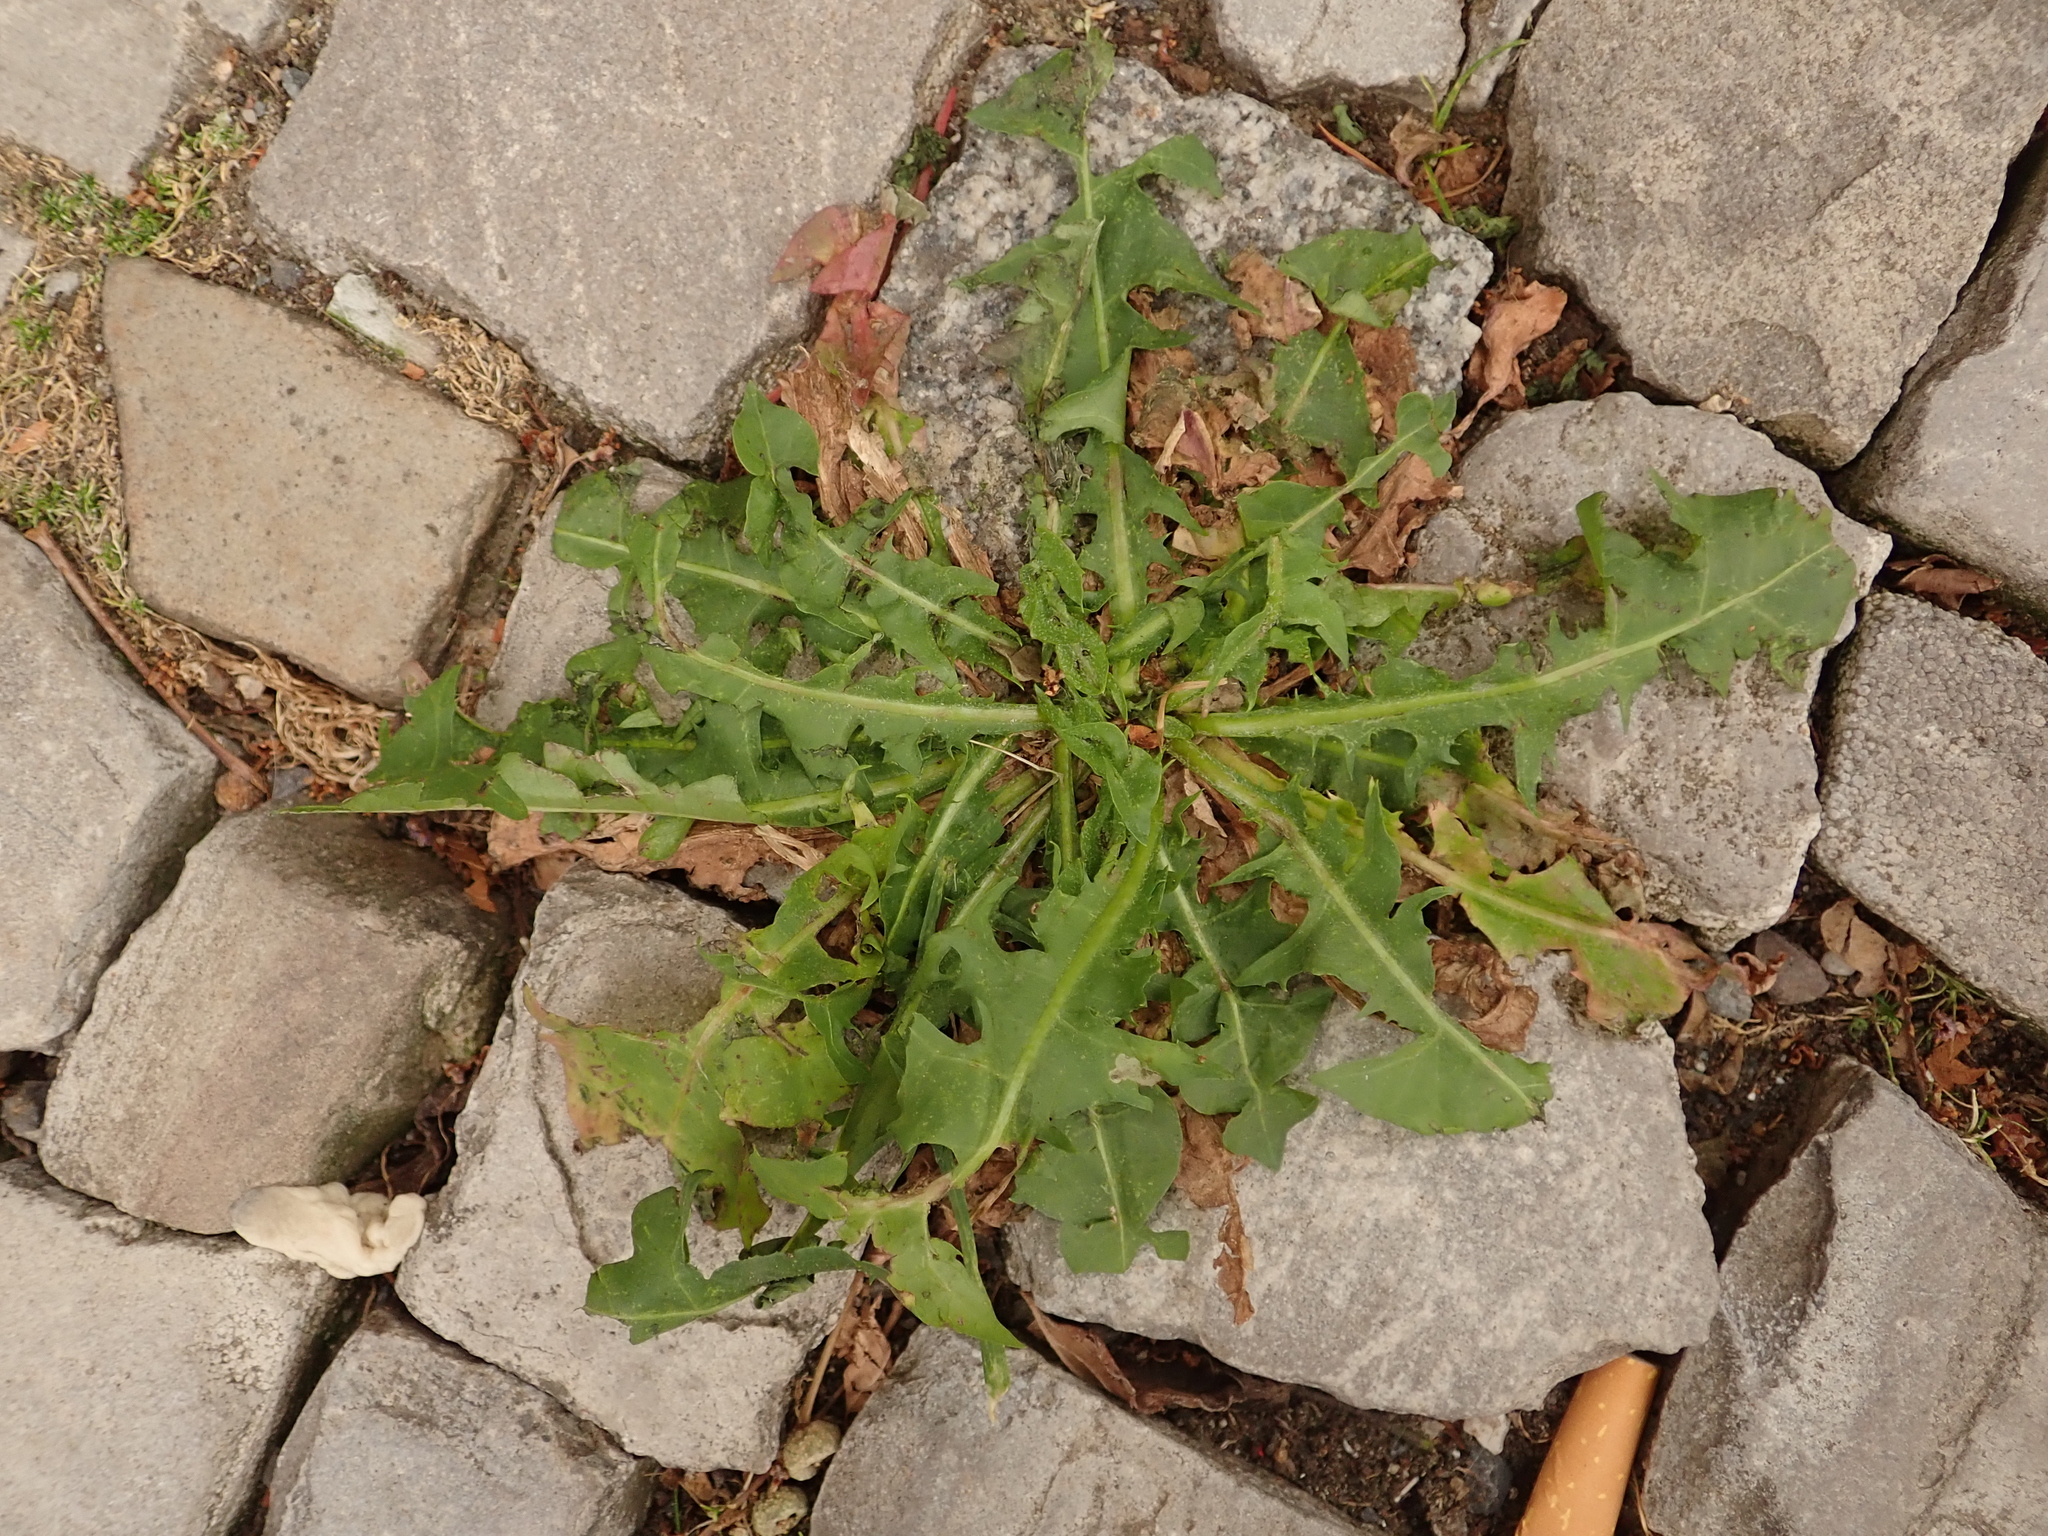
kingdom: Plantae
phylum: Tracheophyta
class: Magnoliopsida
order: Asterales
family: Asteraceae
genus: Taraxacum
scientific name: Taraxacum officinale
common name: Common dandelion
